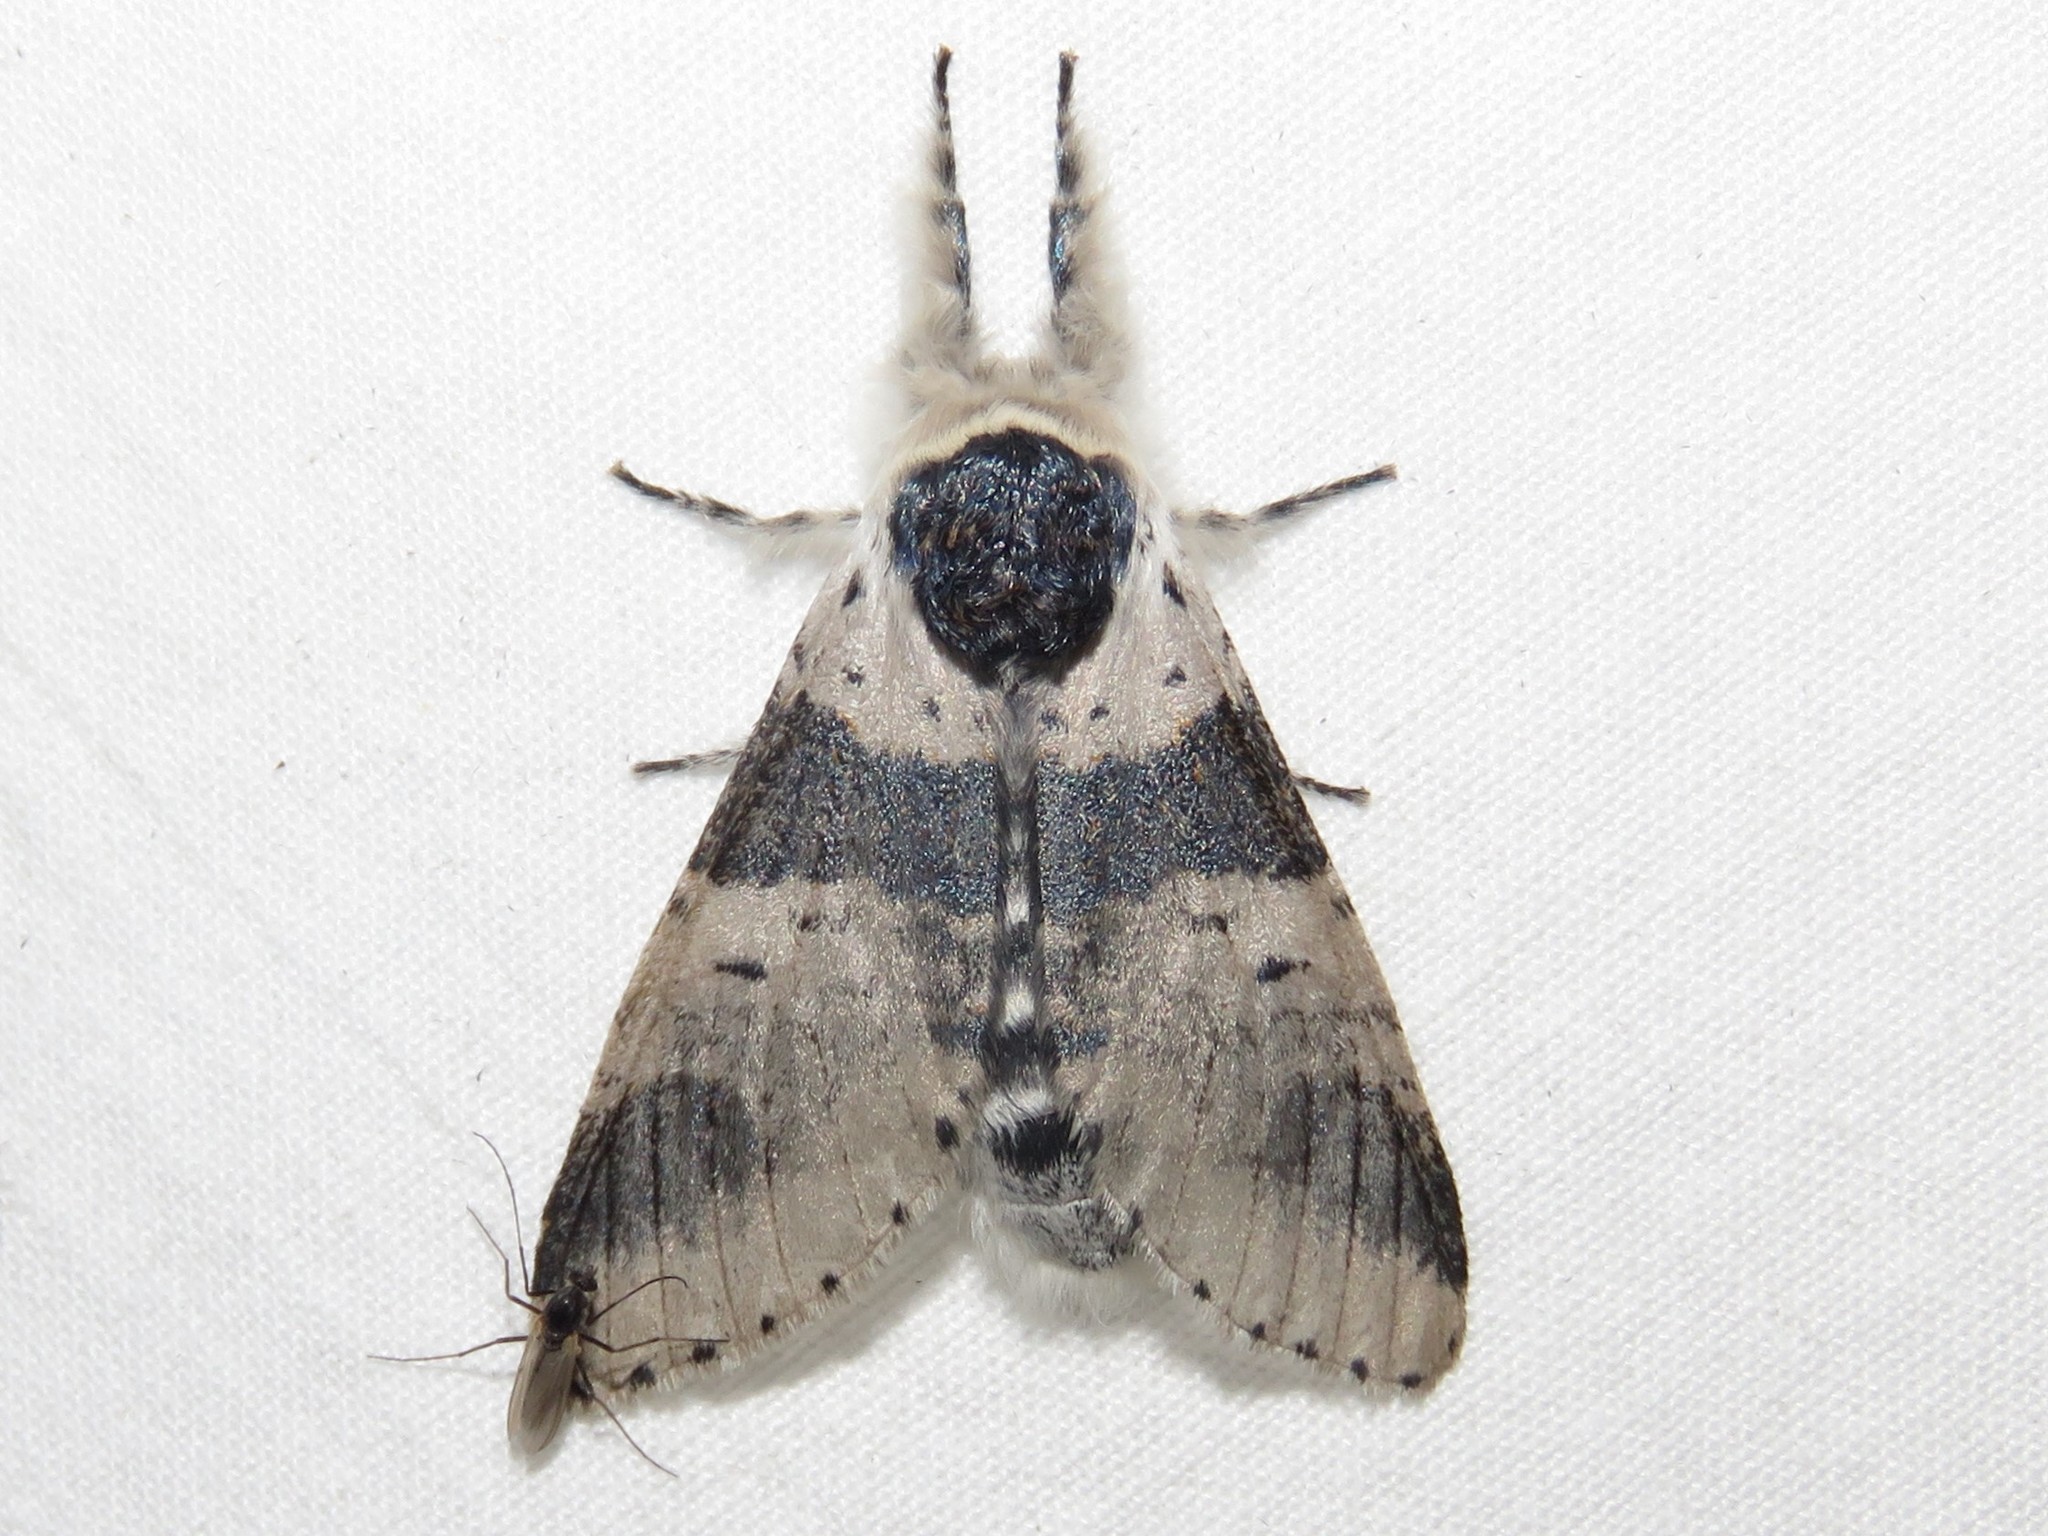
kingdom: Animalia
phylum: Arthropoda
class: Insecta
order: Lepidoptera
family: Notodontidae
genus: Furcula
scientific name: Furcula modesta
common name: Modest furcula moth
